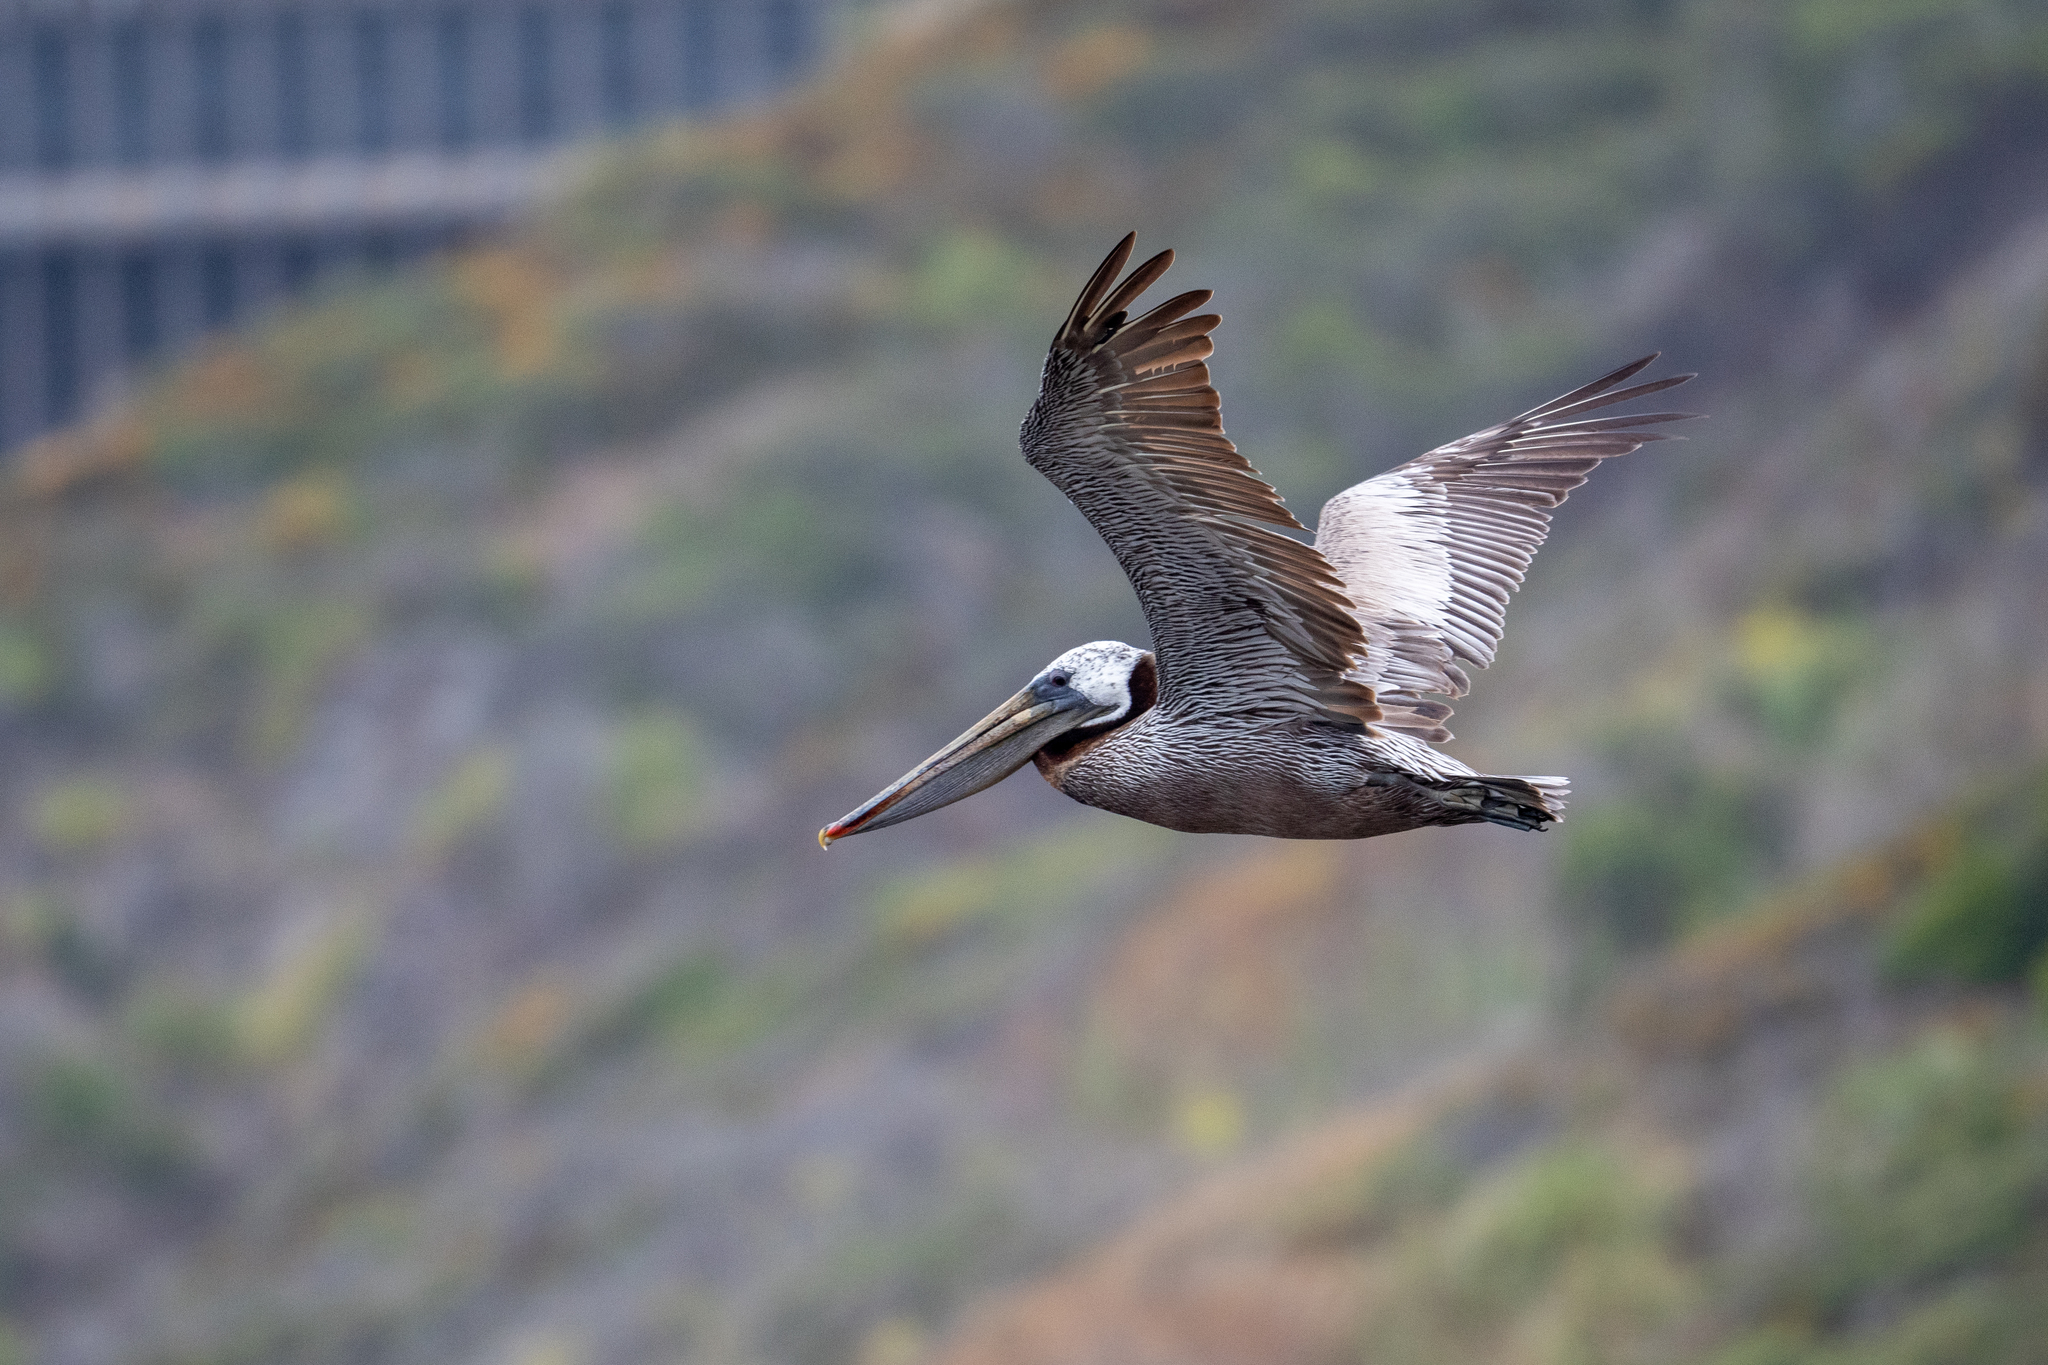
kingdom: Animalia
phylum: Chordata
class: Aves
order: Pelecaniformes
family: Pelecanidae
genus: Pelecanus
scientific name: Pelecanus occidentalis
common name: Brown pelican
